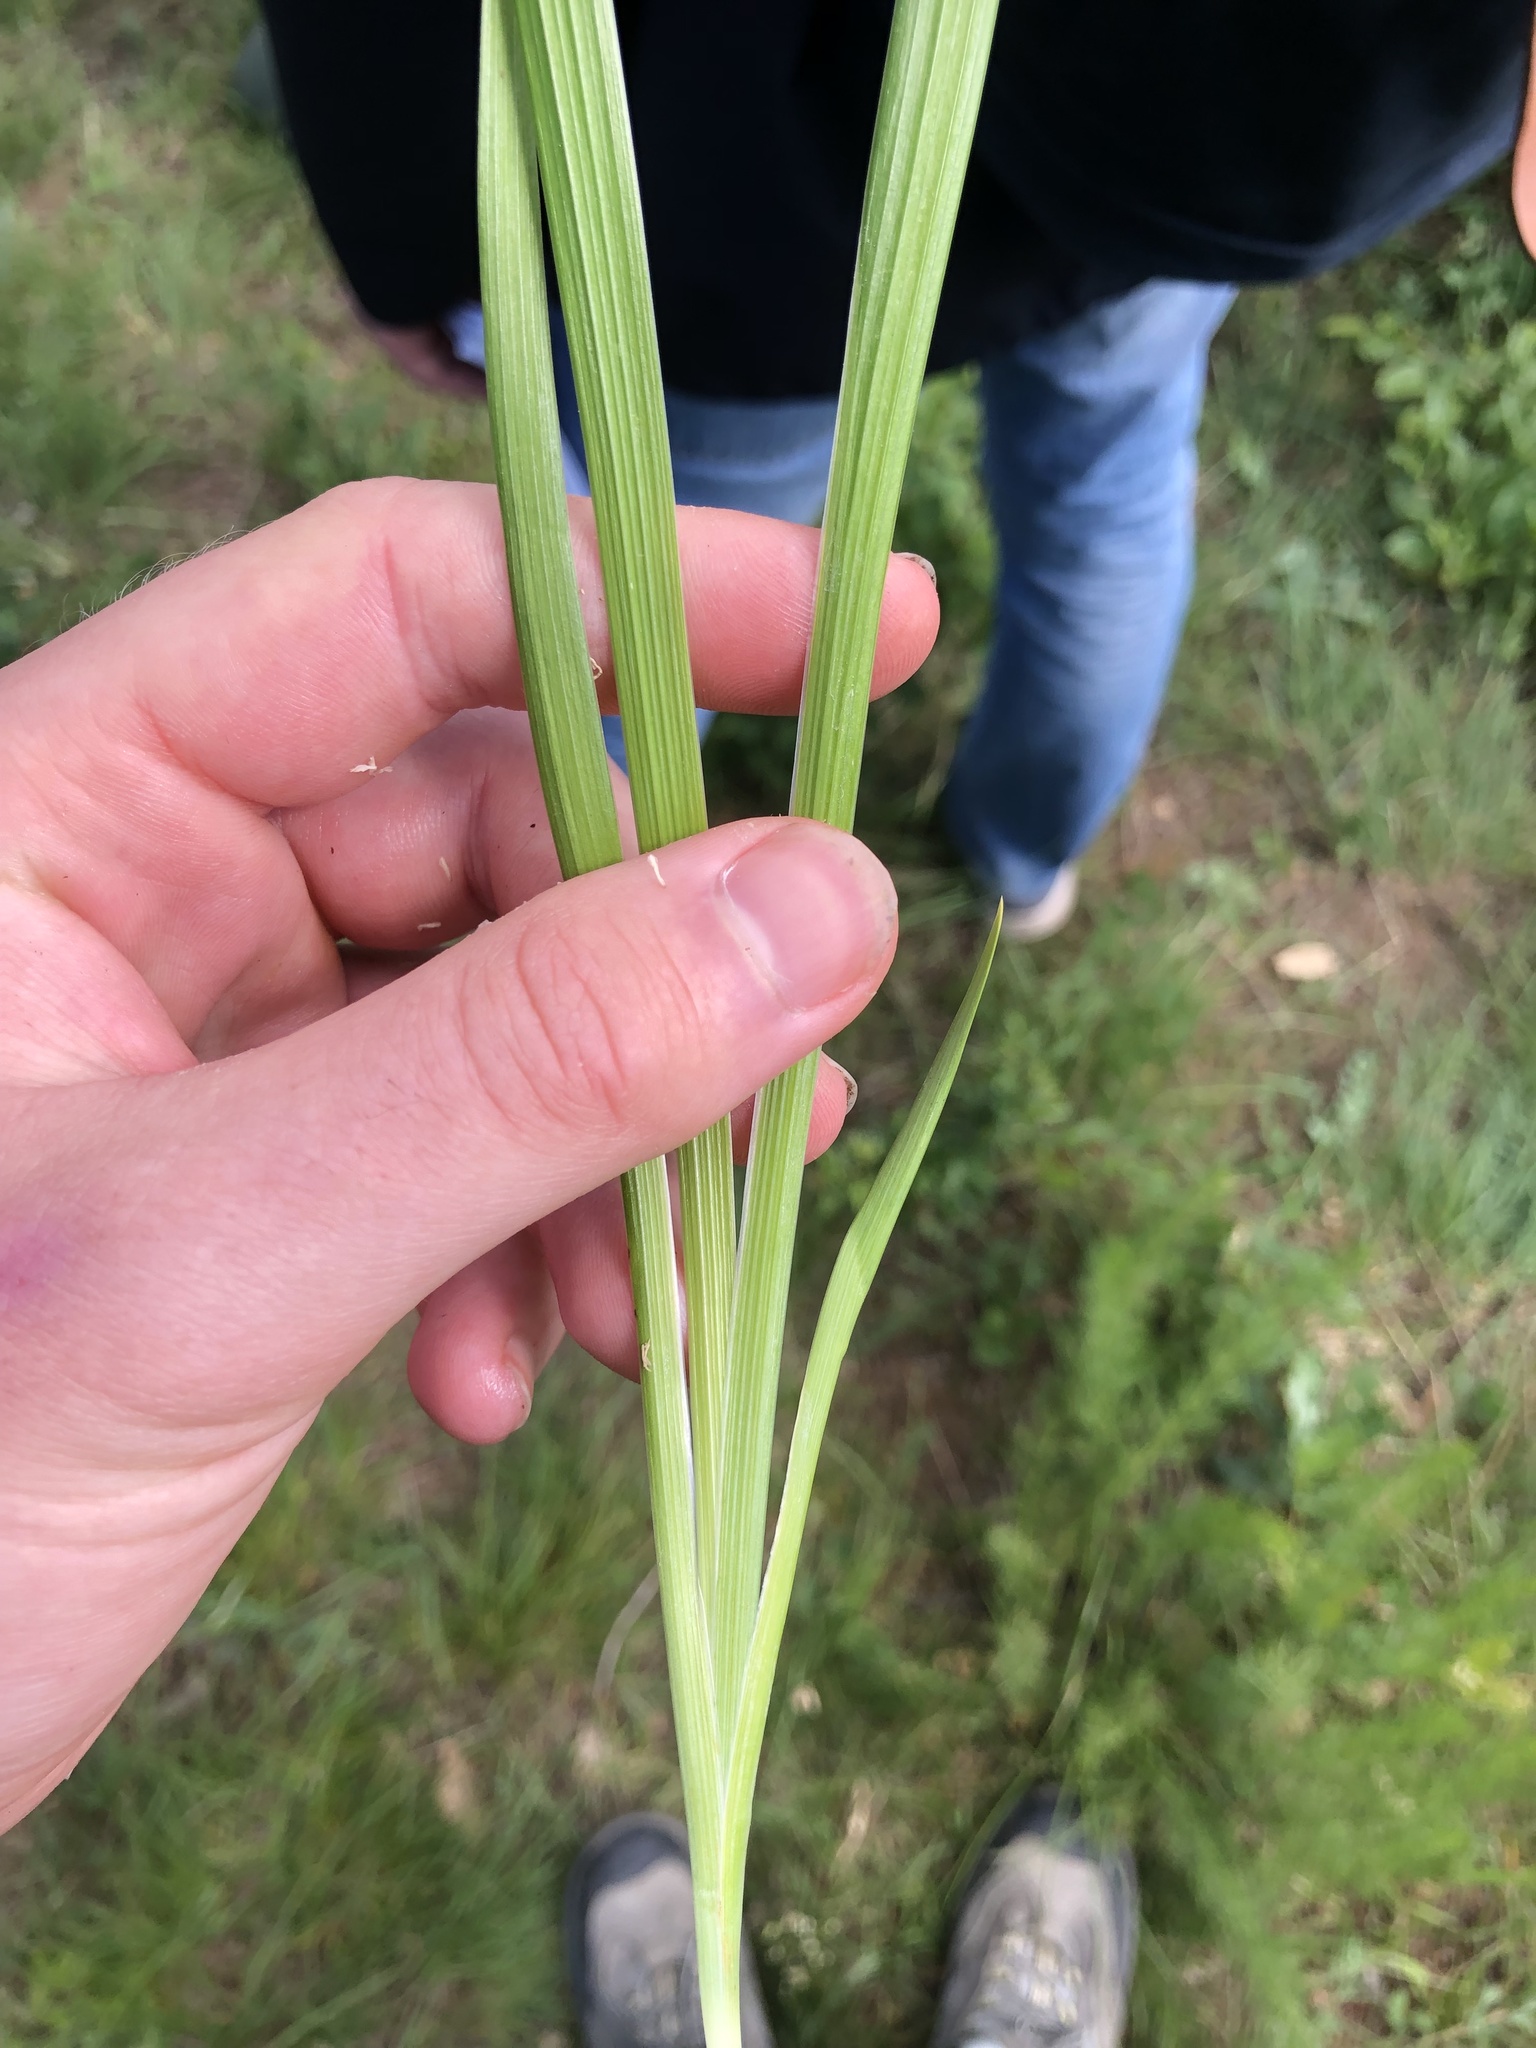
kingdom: Plantae
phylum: Tracheophyta
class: Liliopsida
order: Asparagales
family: Iridaceae
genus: Iris
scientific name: Iris graminea
